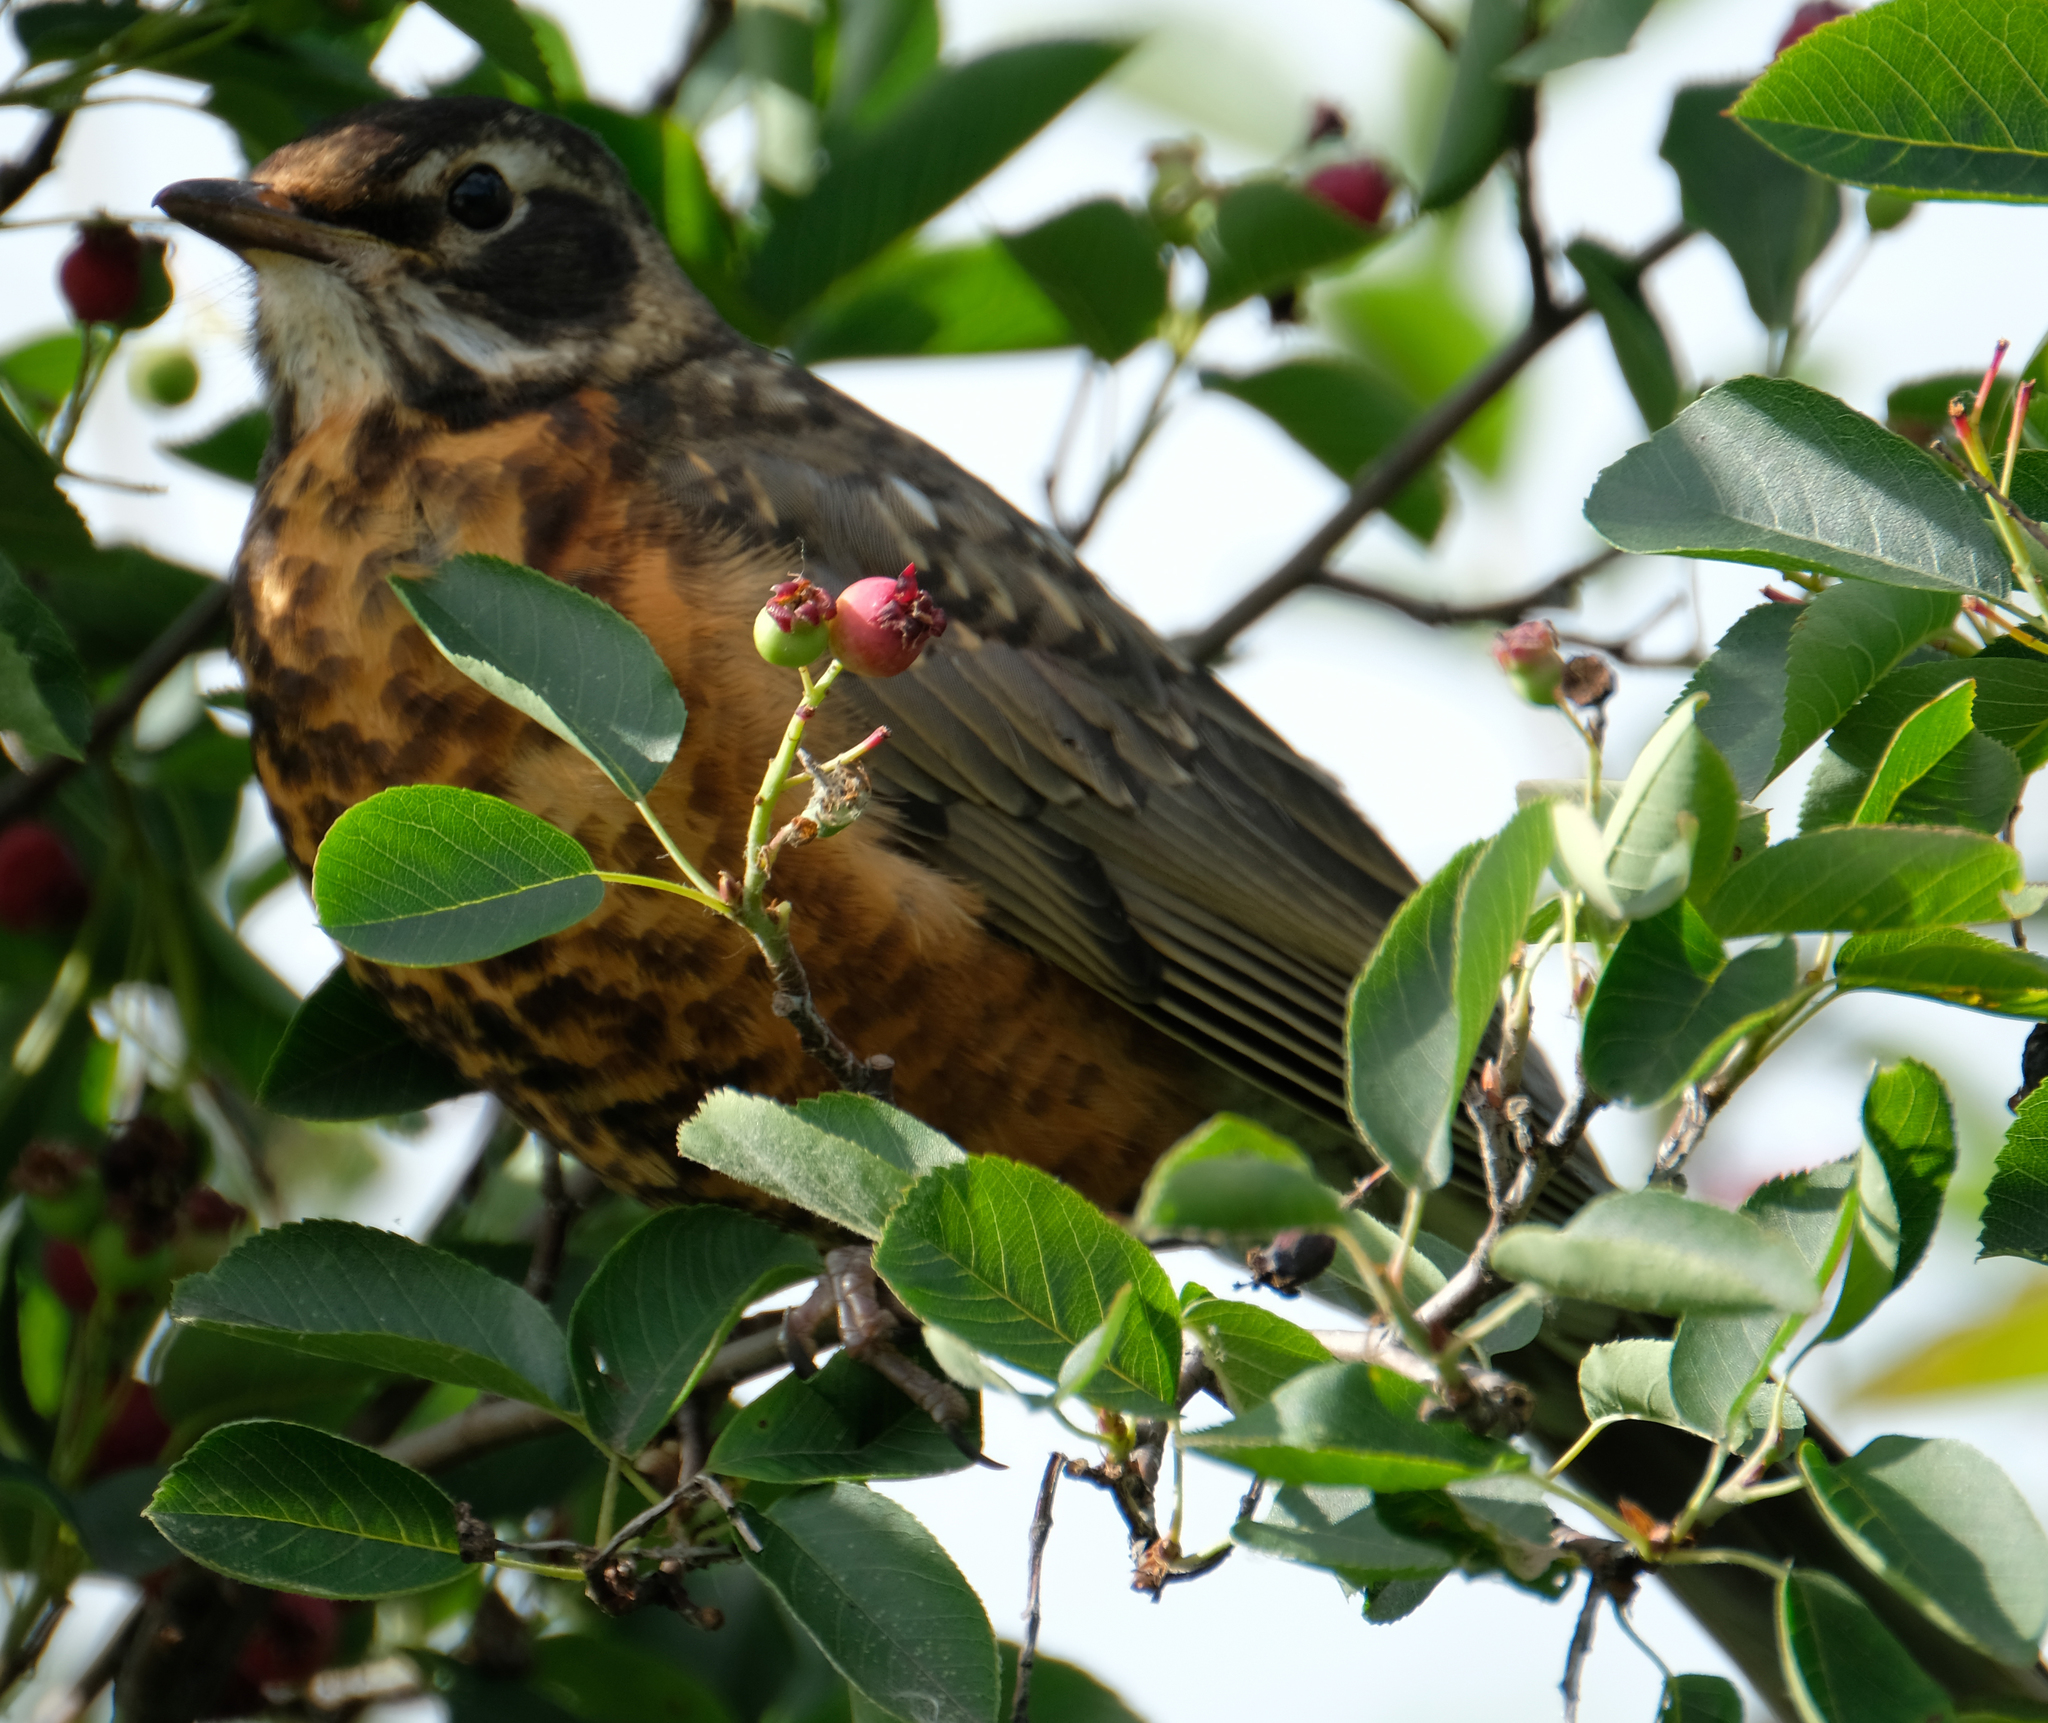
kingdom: Animalia
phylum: Chordata
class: Aves
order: Passeriformes
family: Turdidae
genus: Turdus
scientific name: Turdus migratorius
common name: American robin
